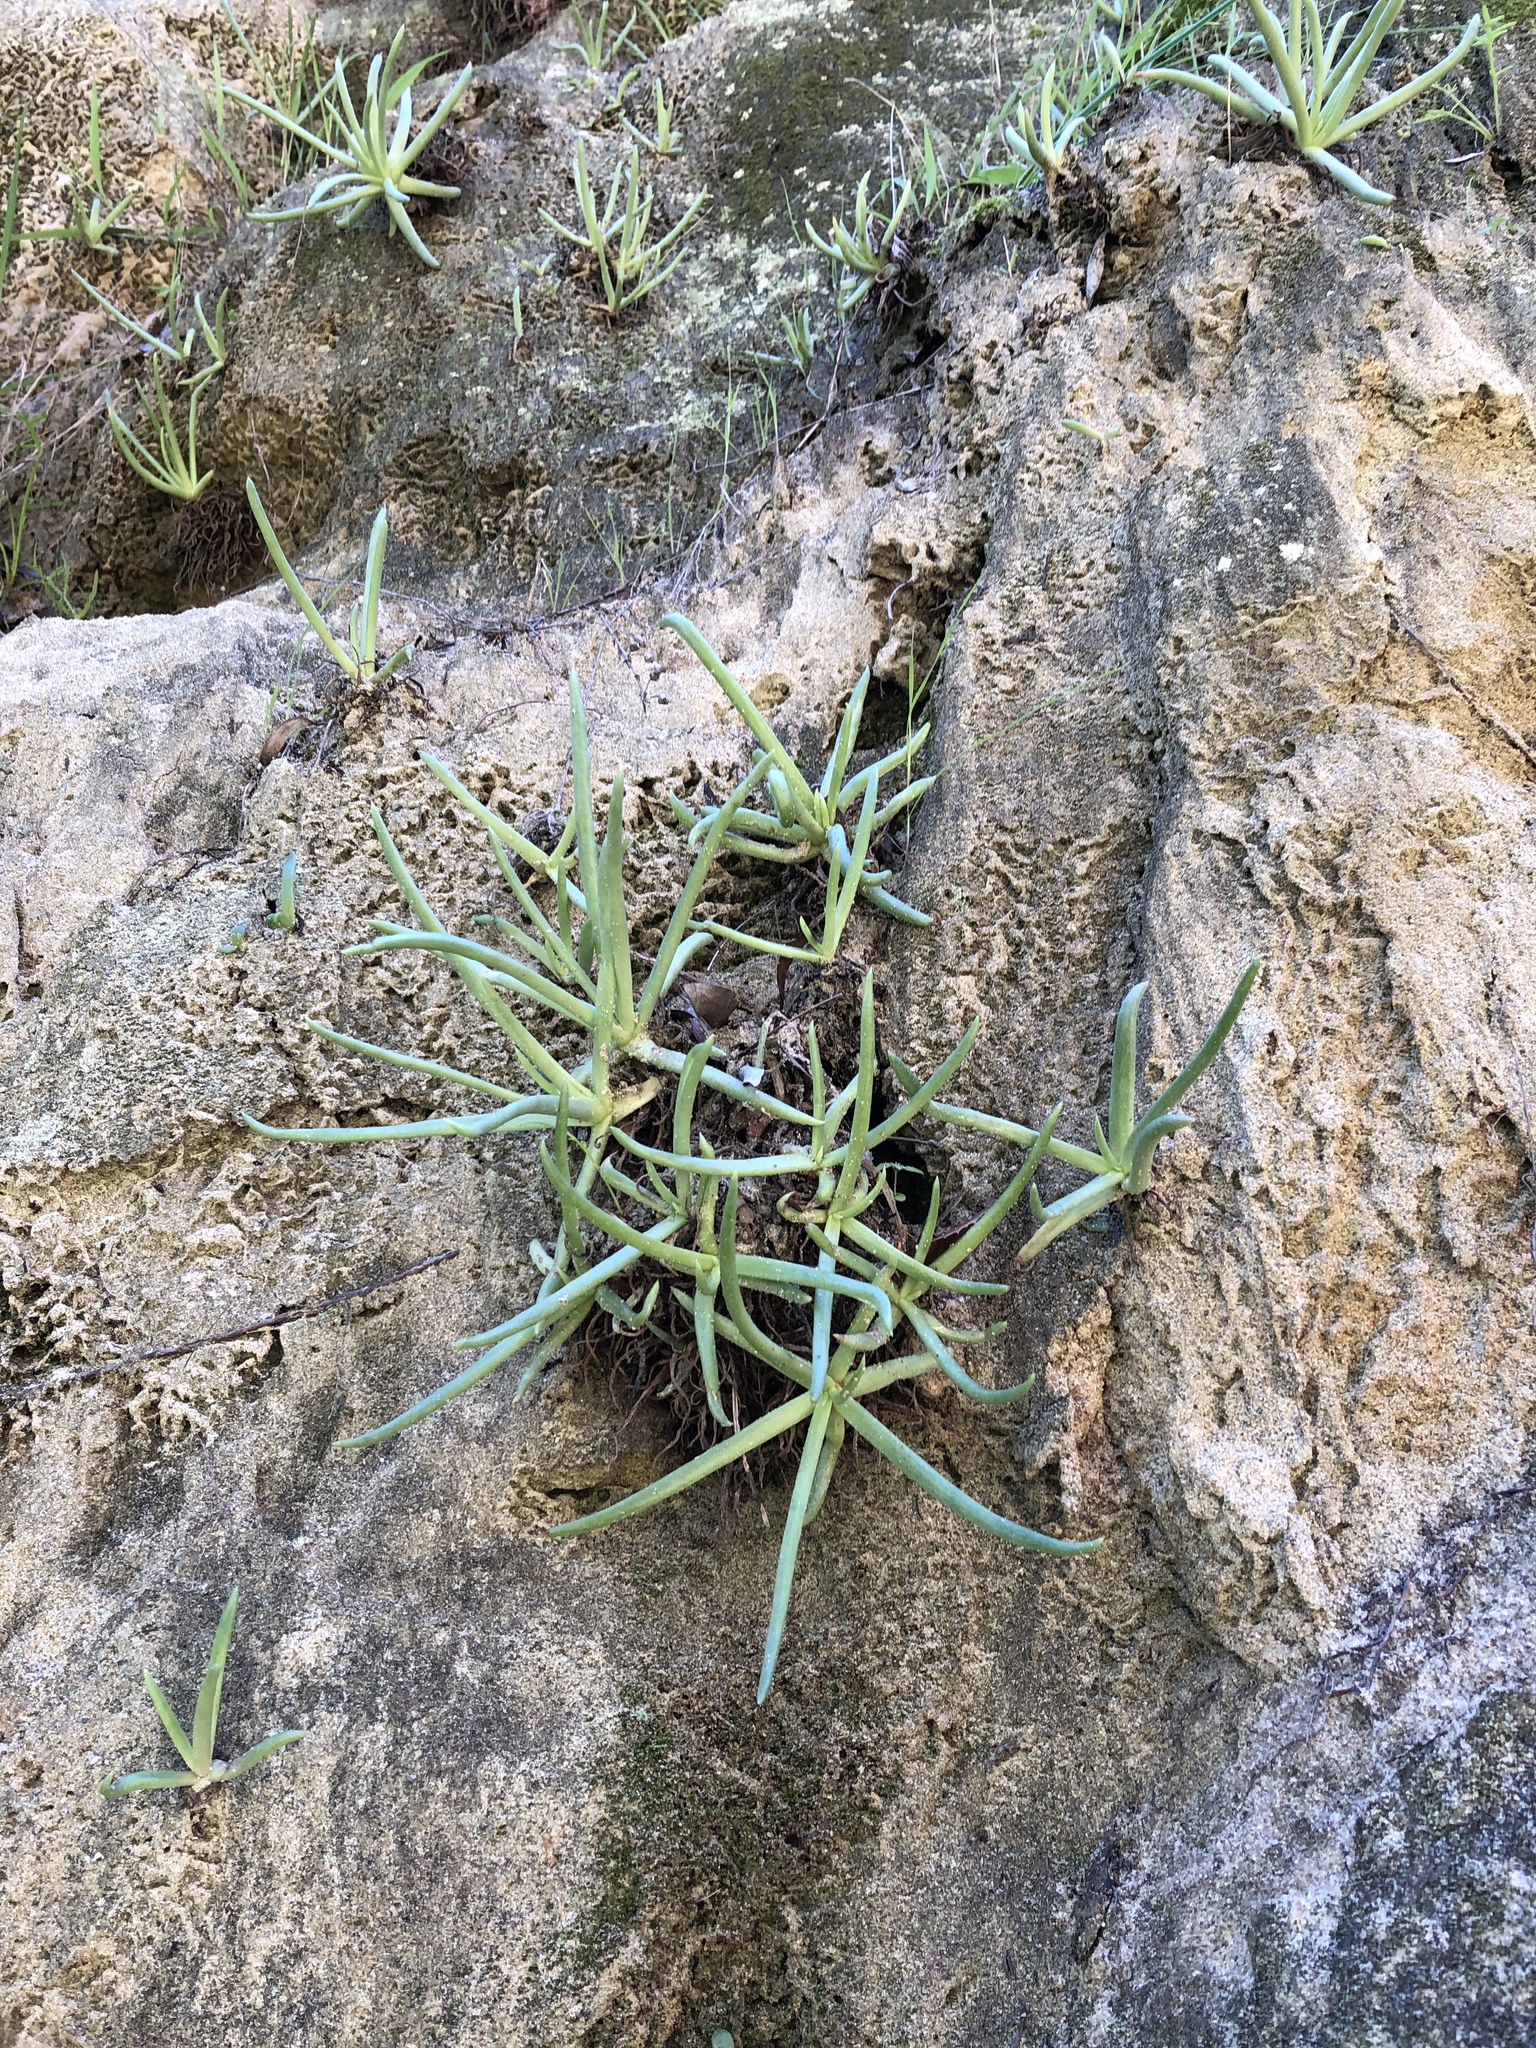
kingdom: Plantae
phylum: Tracheophyta
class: Magnoliopsida
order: Saxifragales
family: Crassulaceae
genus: Dudleya
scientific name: Dudleya edulis
